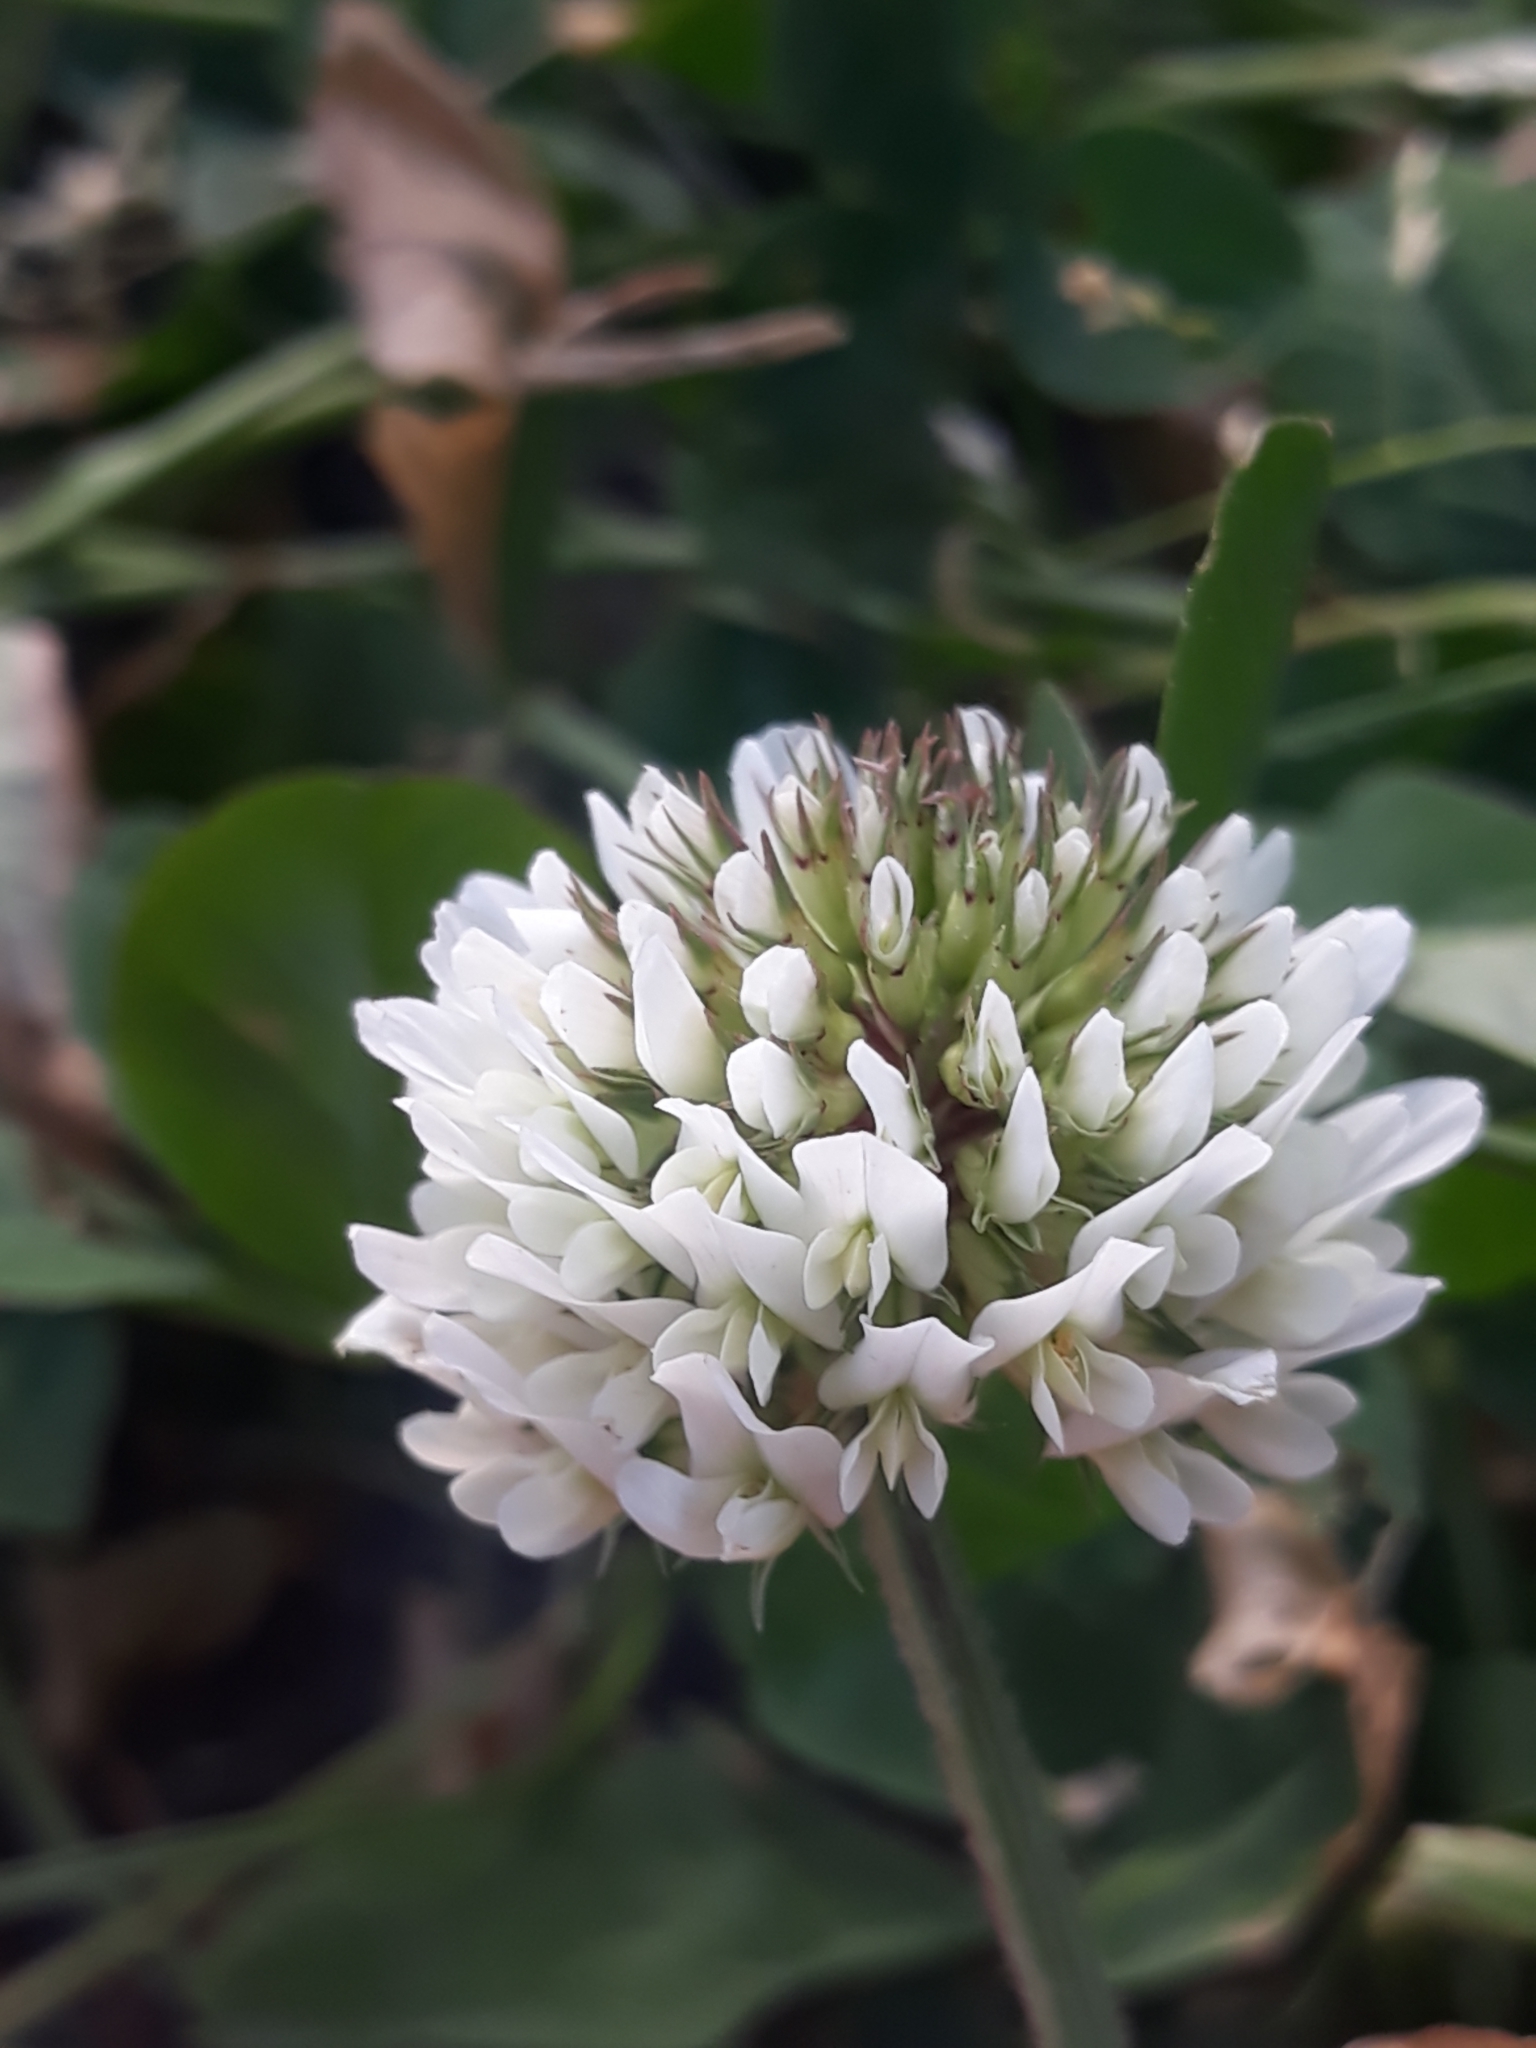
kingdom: Plantae
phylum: Tracheophyta
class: Magnoliopsida
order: Fabales
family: Fabaceae
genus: Trifolium
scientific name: Trifolium repens
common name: White clover
